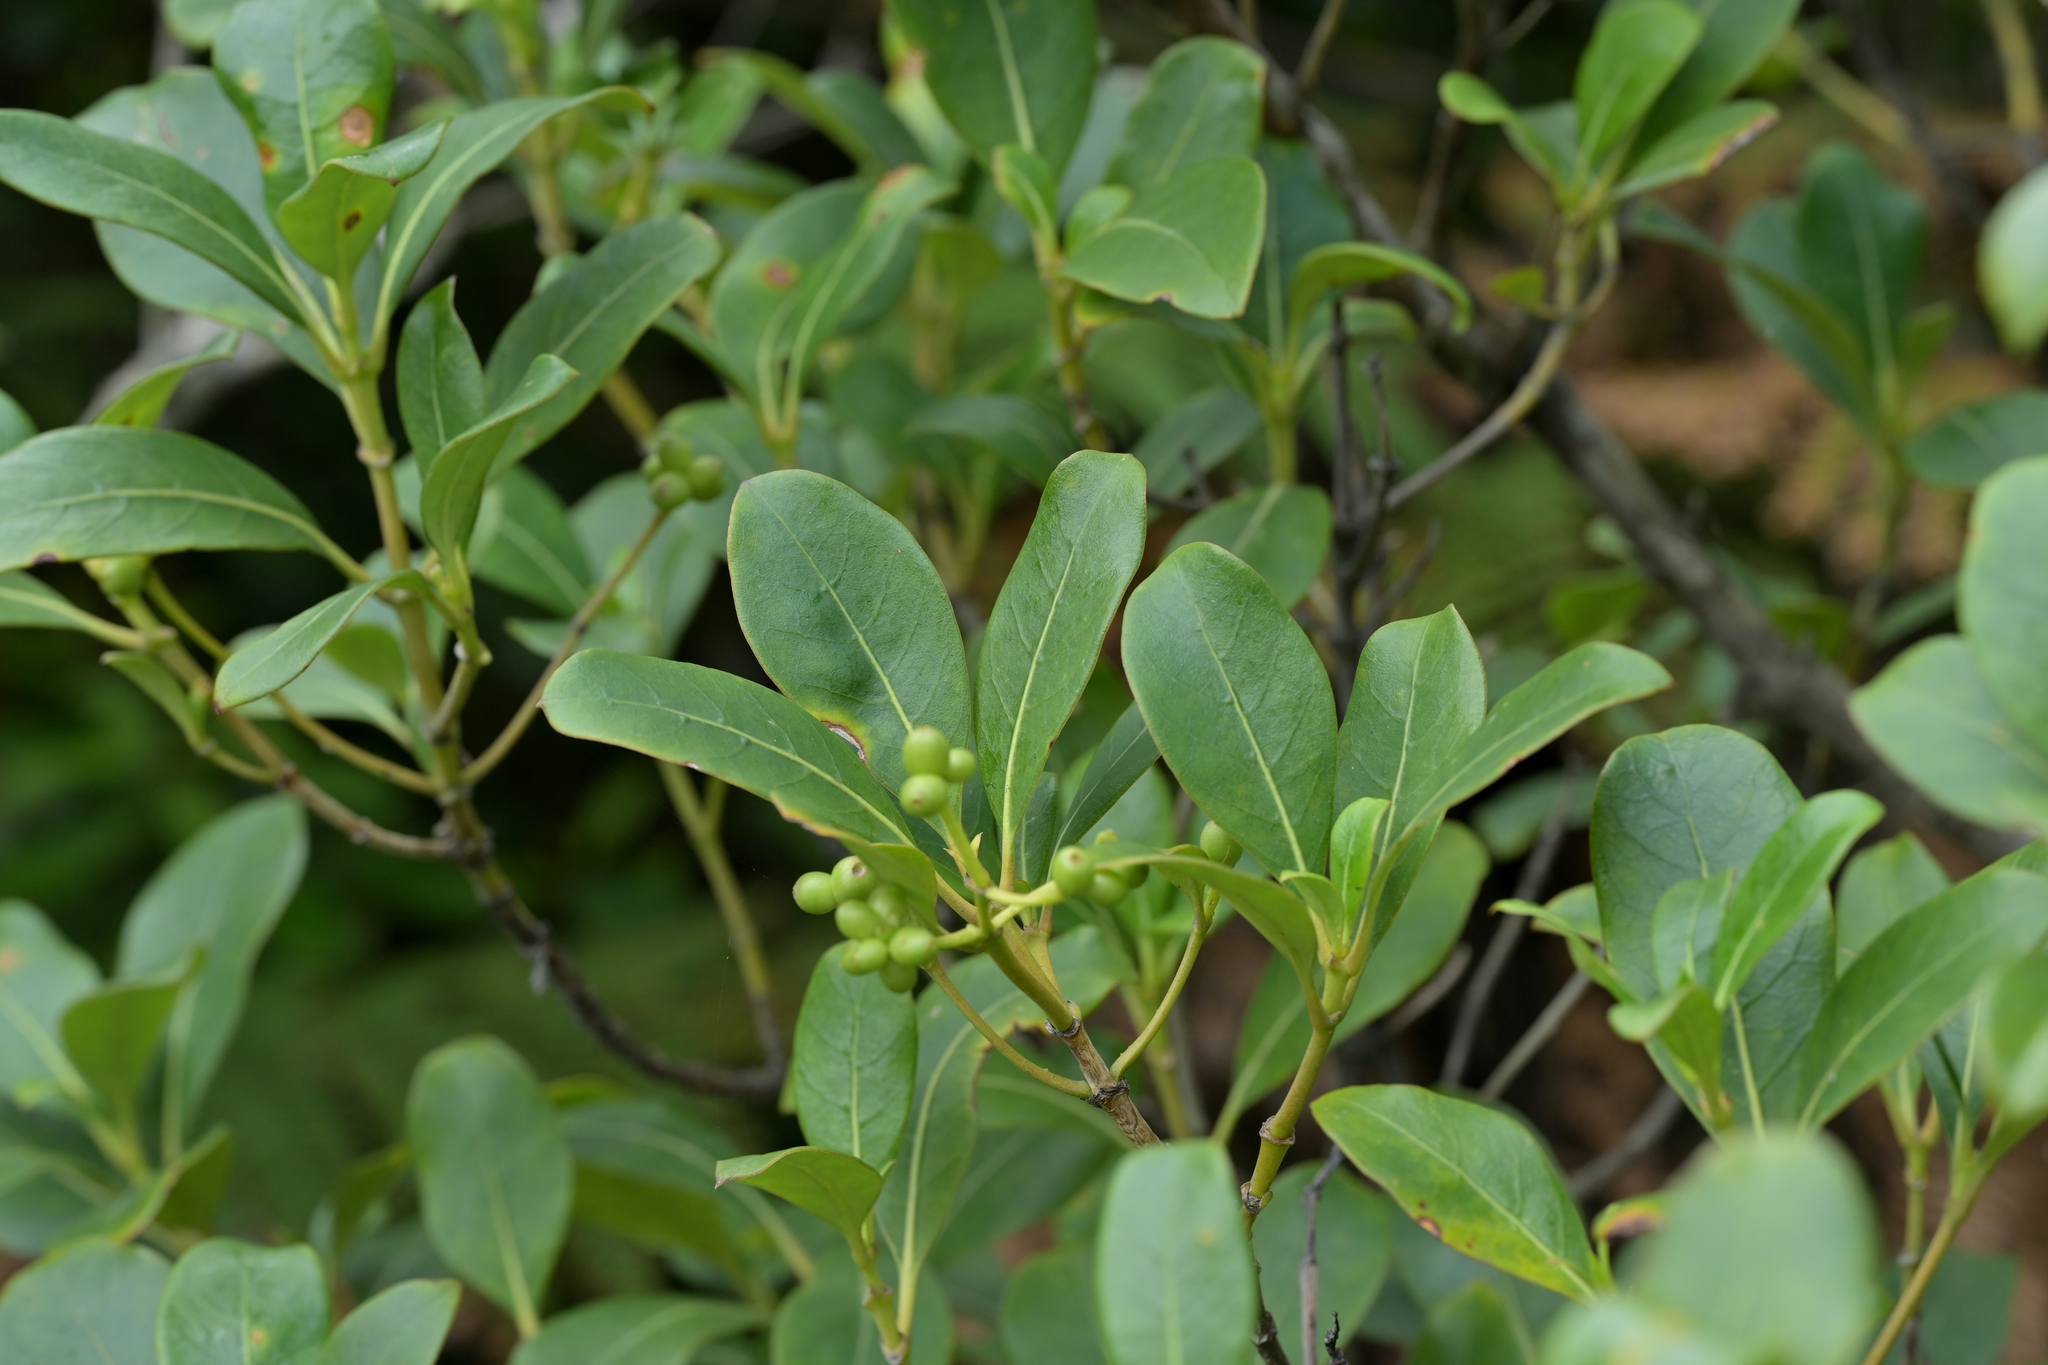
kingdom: Plantae
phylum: Tracheophyta
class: Magnoliopsida
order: Gentianales
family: Rubiaceae
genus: Coprosma
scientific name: Coprosma lucida
